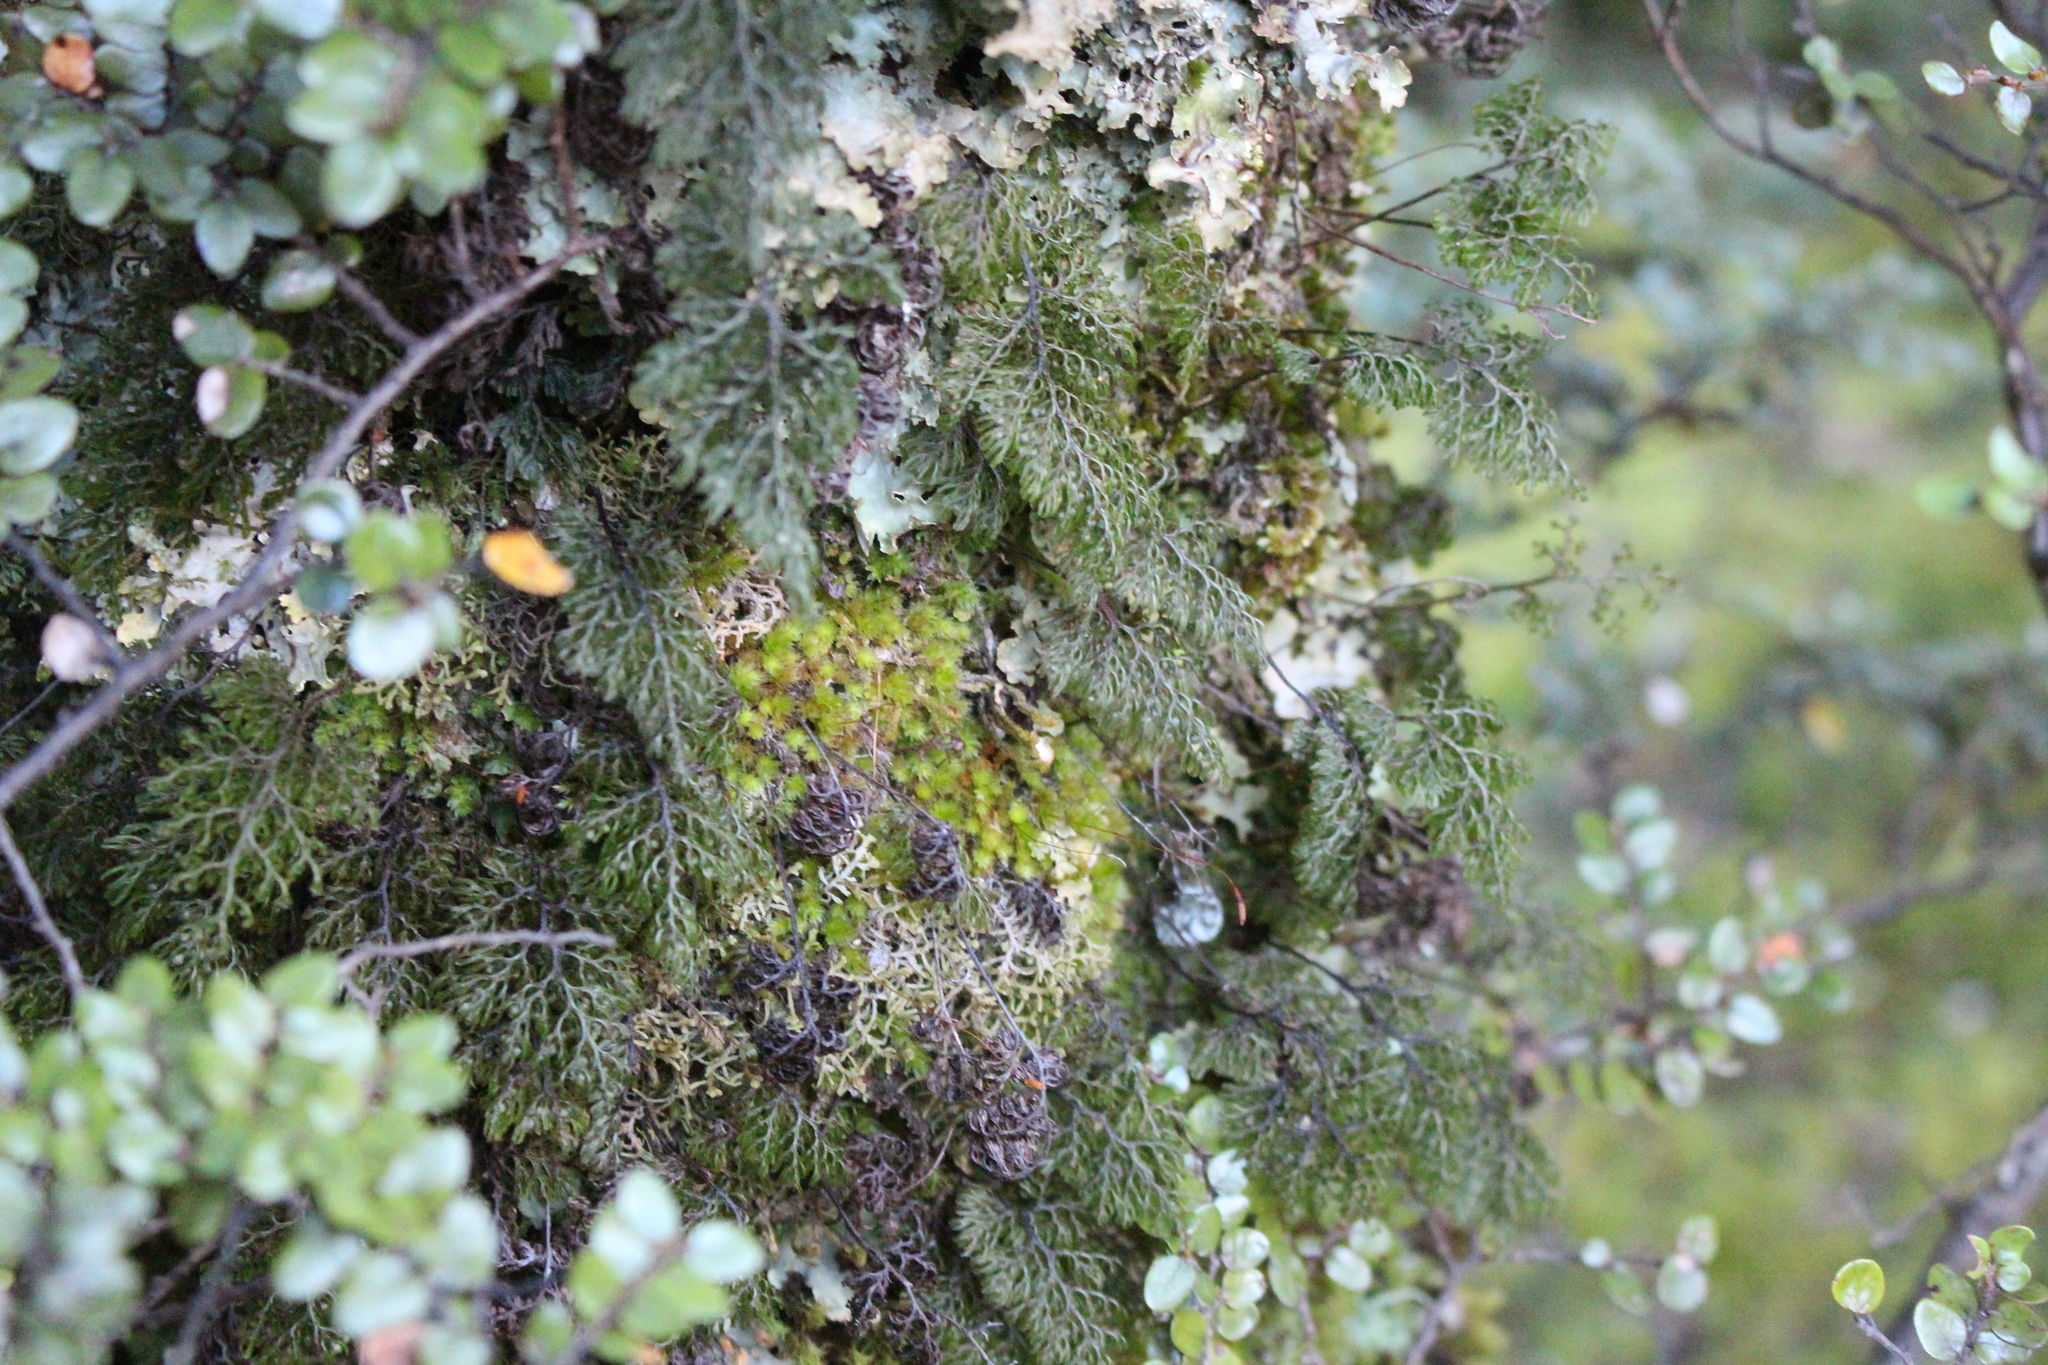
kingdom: Plantae
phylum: Tracheophyta
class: Polypodiopsida
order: Hymenophyllales
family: Hymenophyllaceae
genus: Hymenophyllum
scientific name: Hymenophyllum villosum
